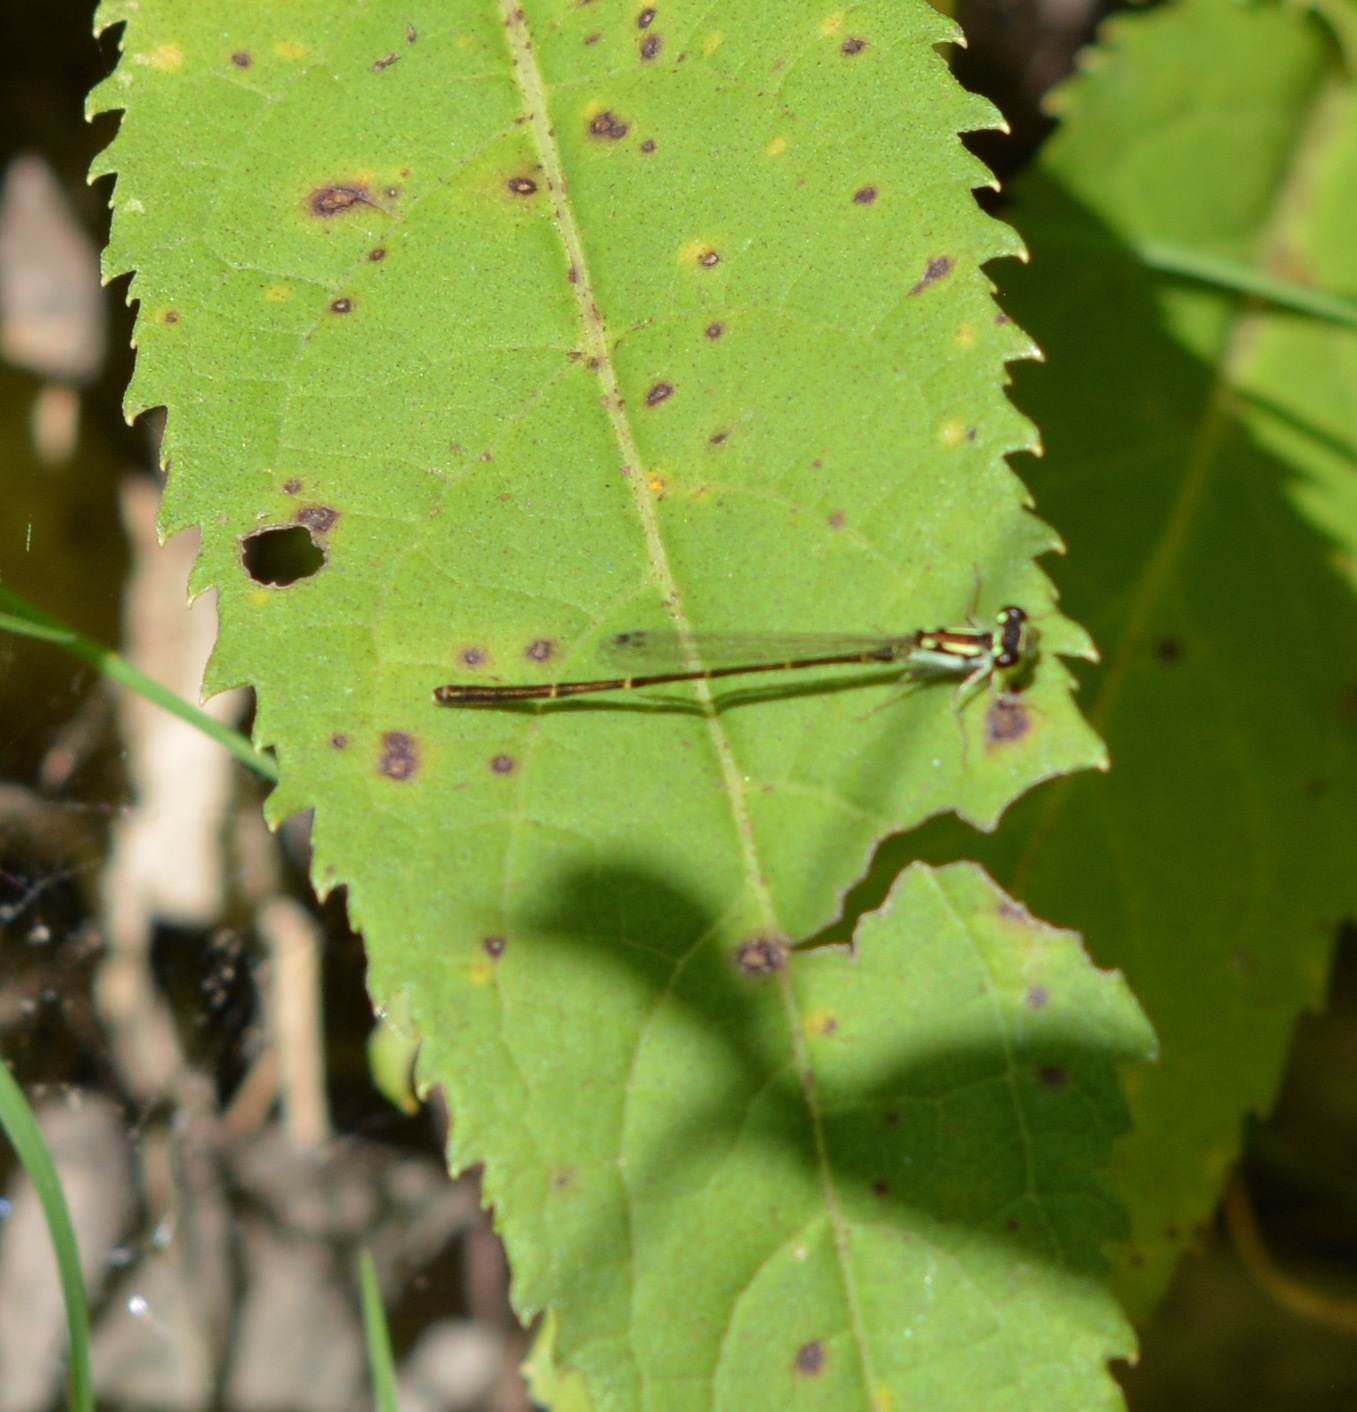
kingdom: Animalia
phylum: Arthropoda
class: Insecta
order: Odonata
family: Coenagrionidae
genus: Ischnura
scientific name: Ischnura posita
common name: Fragile forktail
